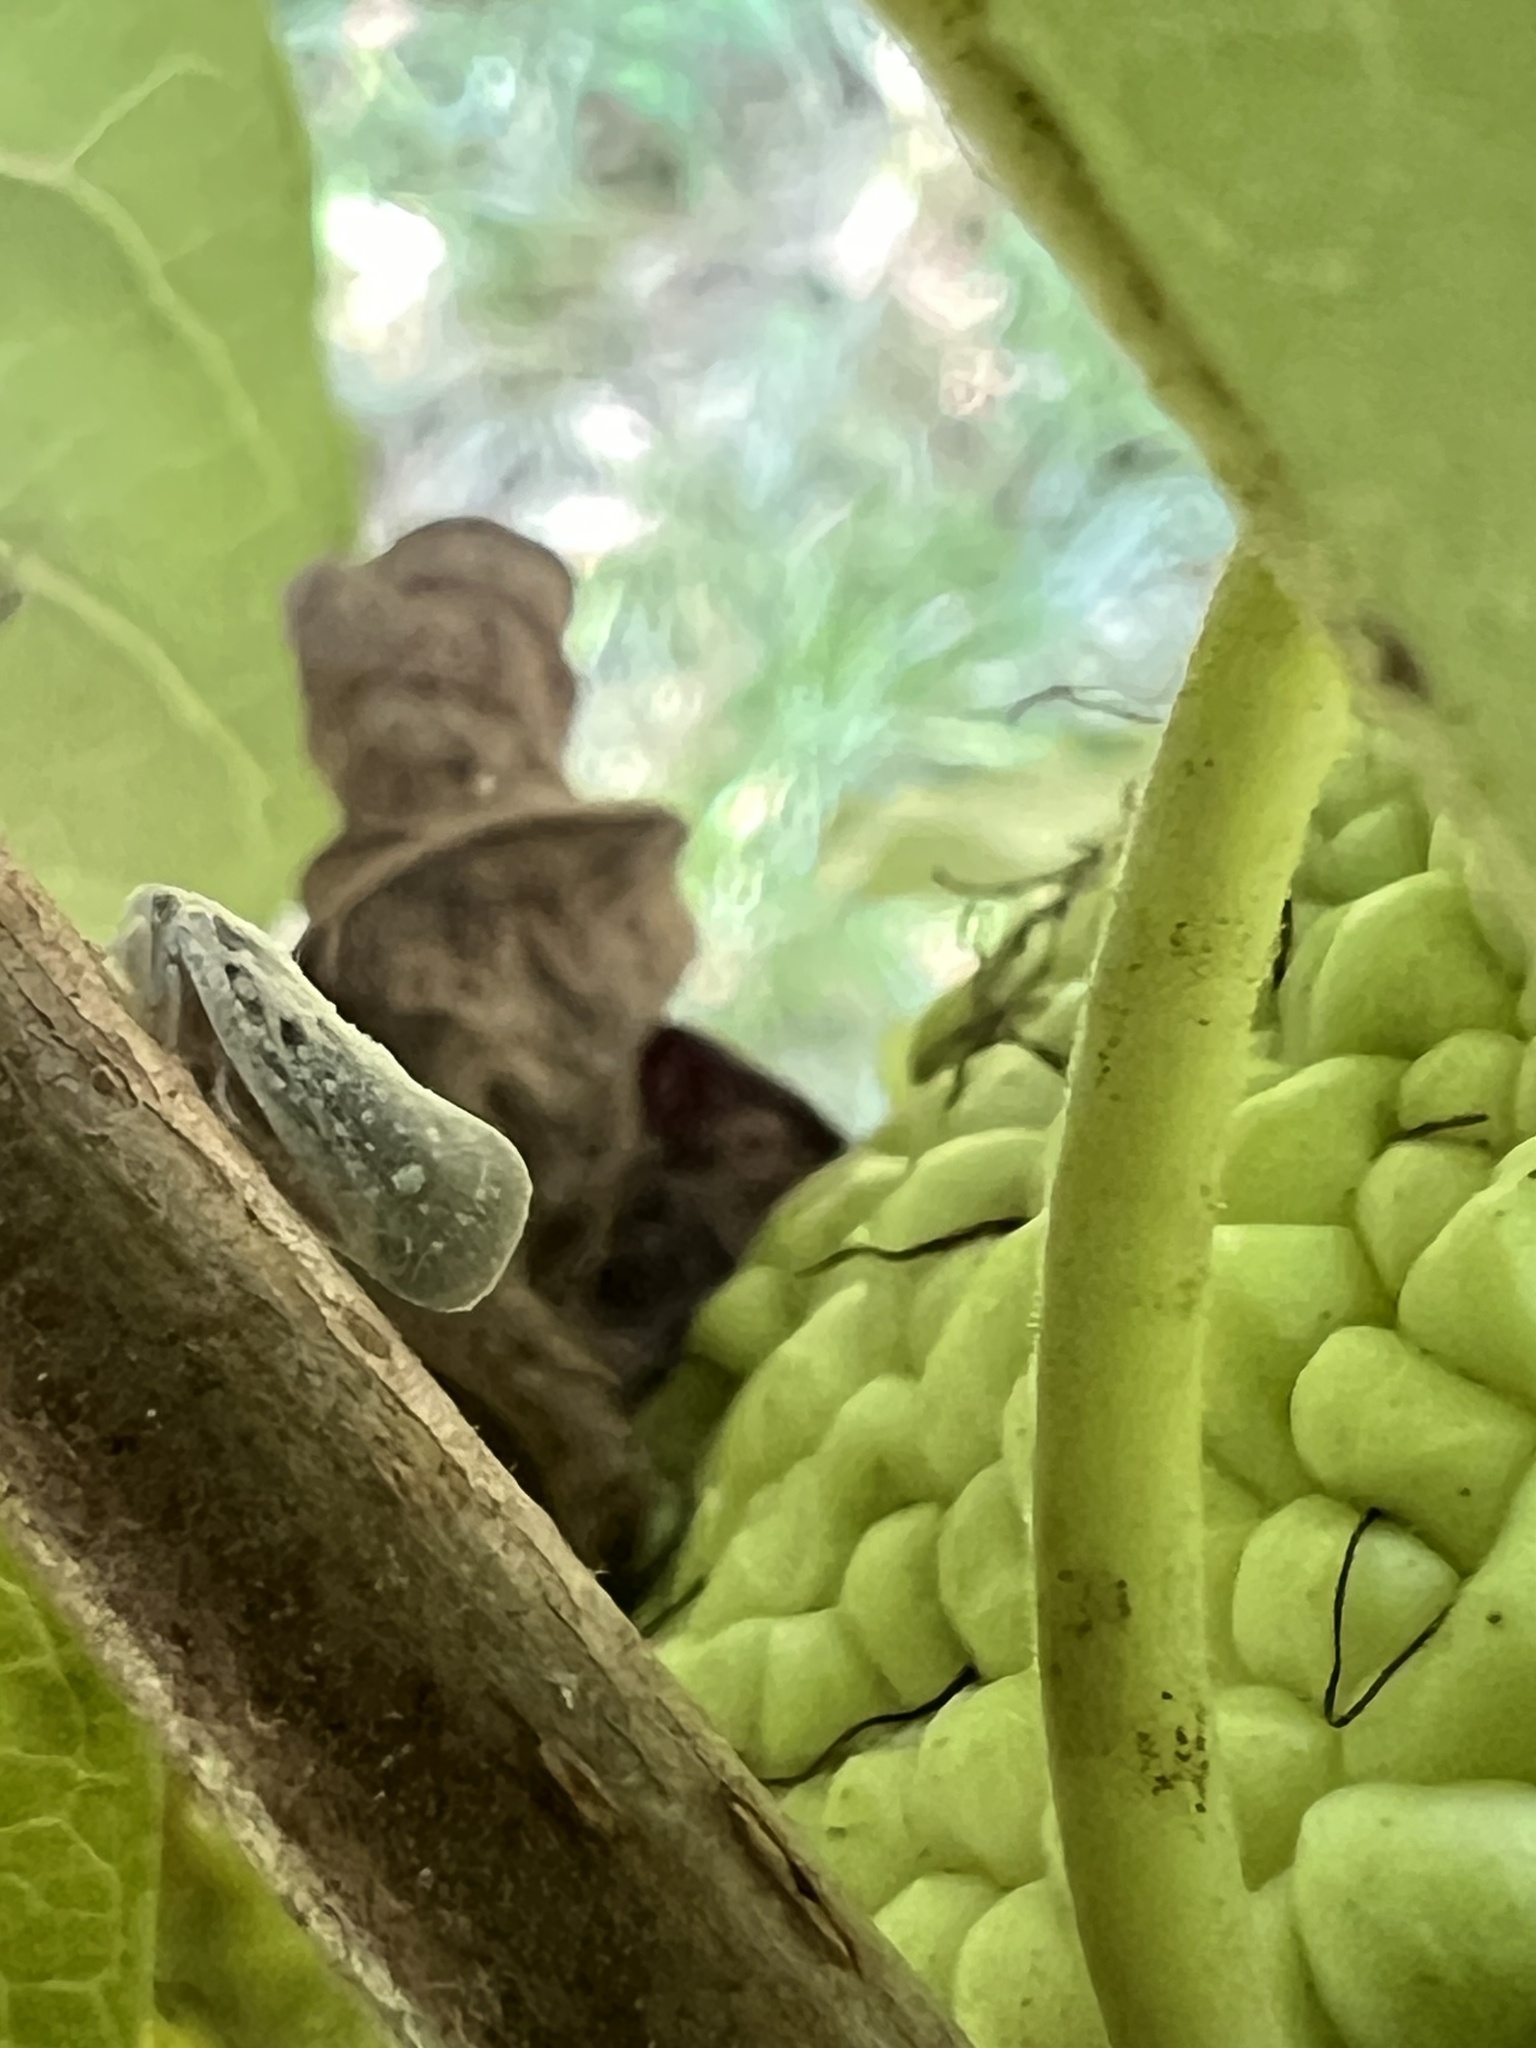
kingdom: Animalia
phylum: Arthropoda
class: Insecta
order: Hemiptera
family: Flatidae
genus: Metcalfa
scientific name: Metcalfa pruinosa
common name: Citrus flatid planthopper
